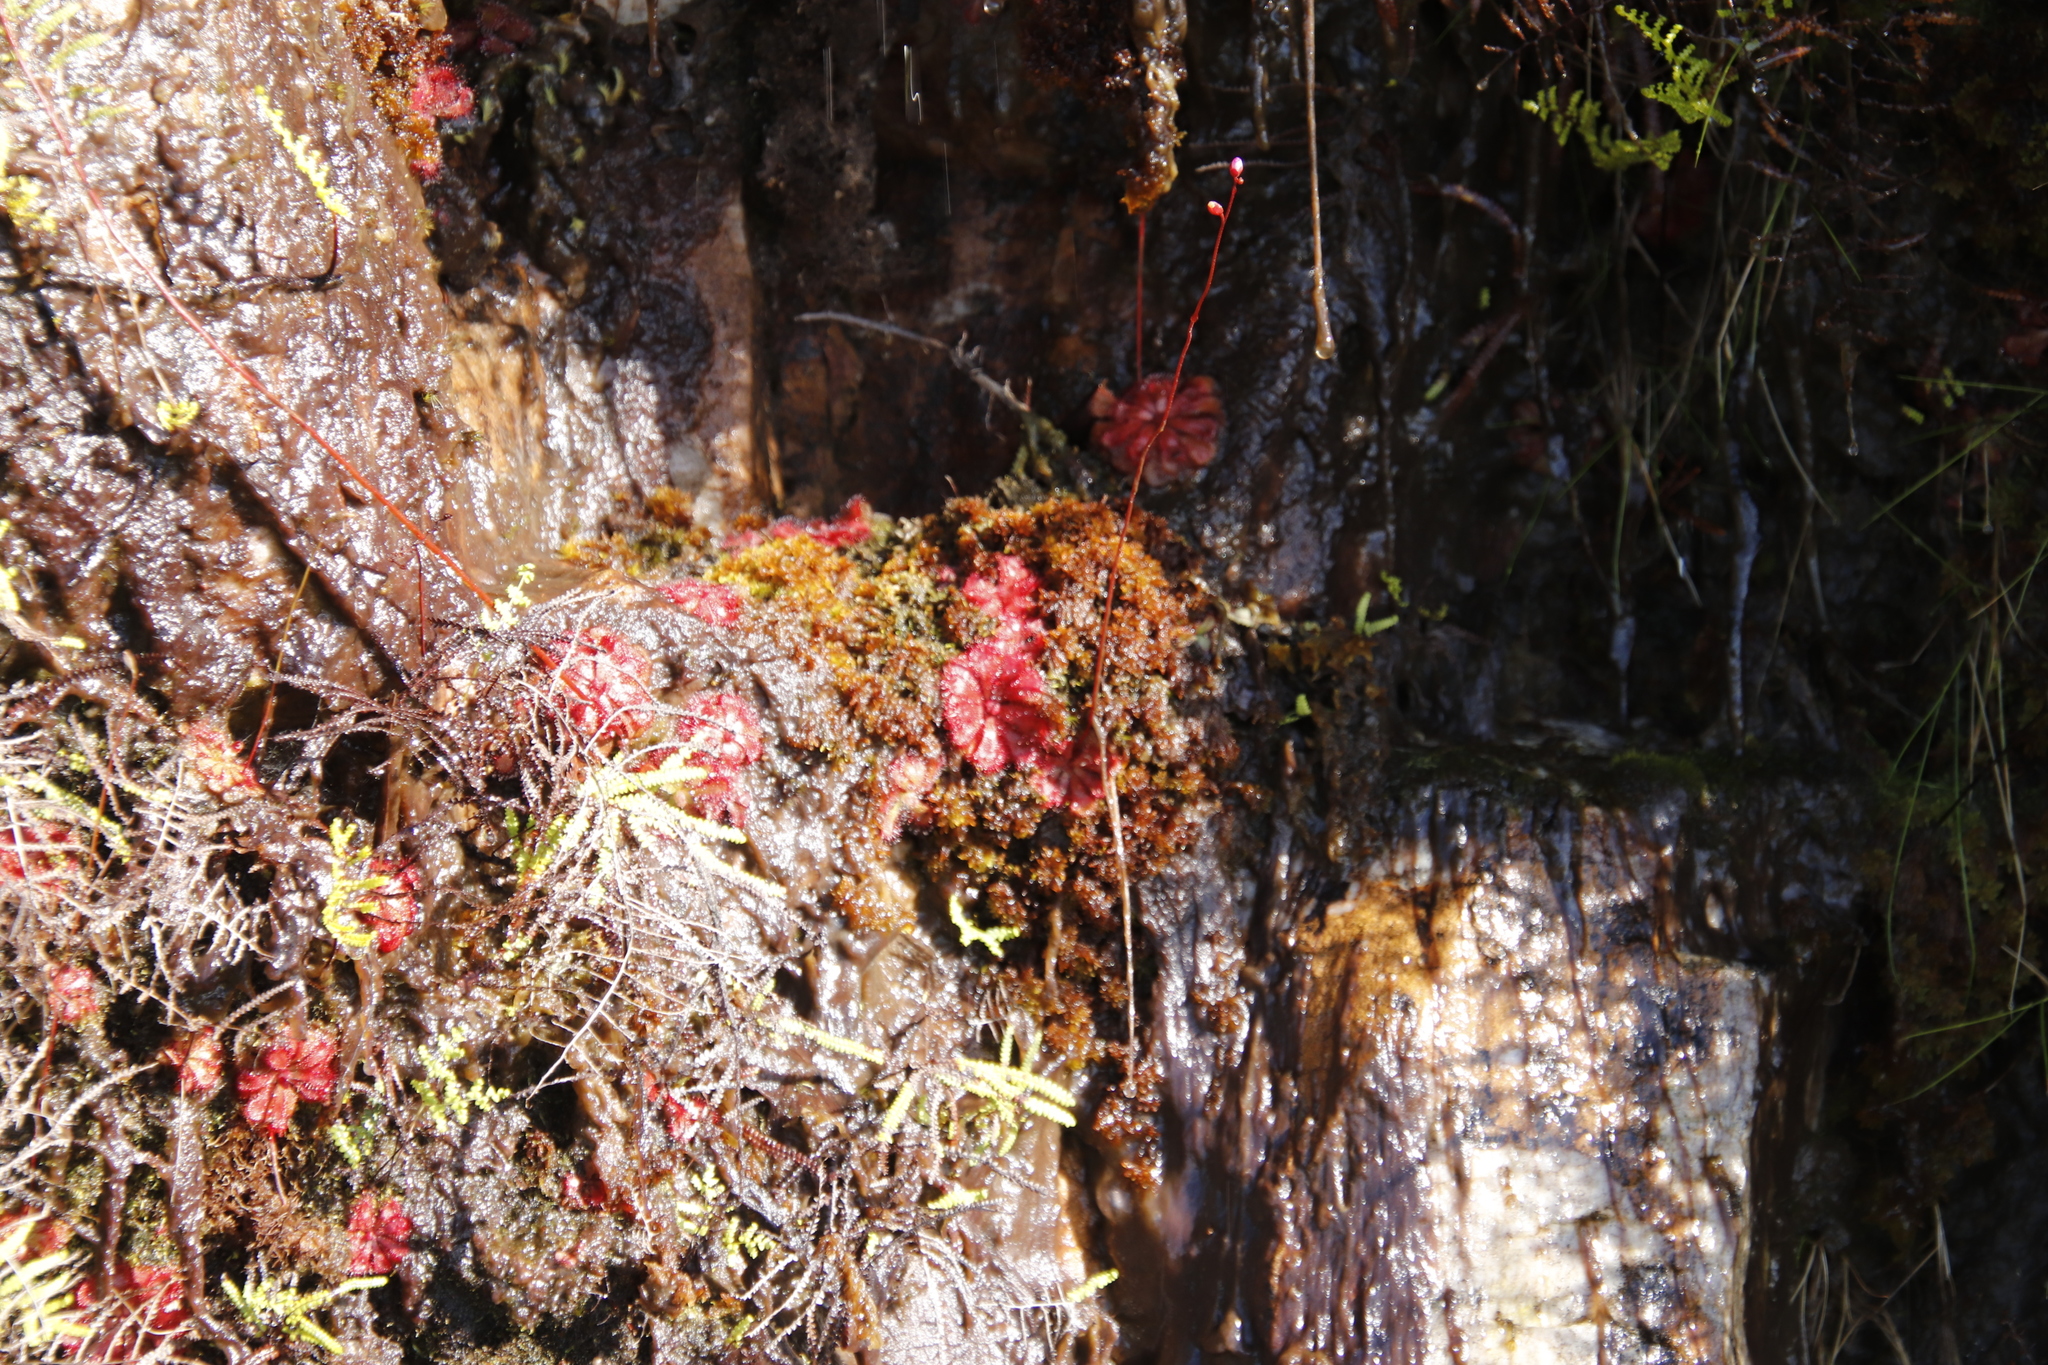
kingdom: Plantae
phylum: Tracheophyta
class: Magnoliopsida
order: Caryophyllales
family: Droseraceae
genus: Drosera
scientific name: Drosera aliciae
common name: Alice sundew
